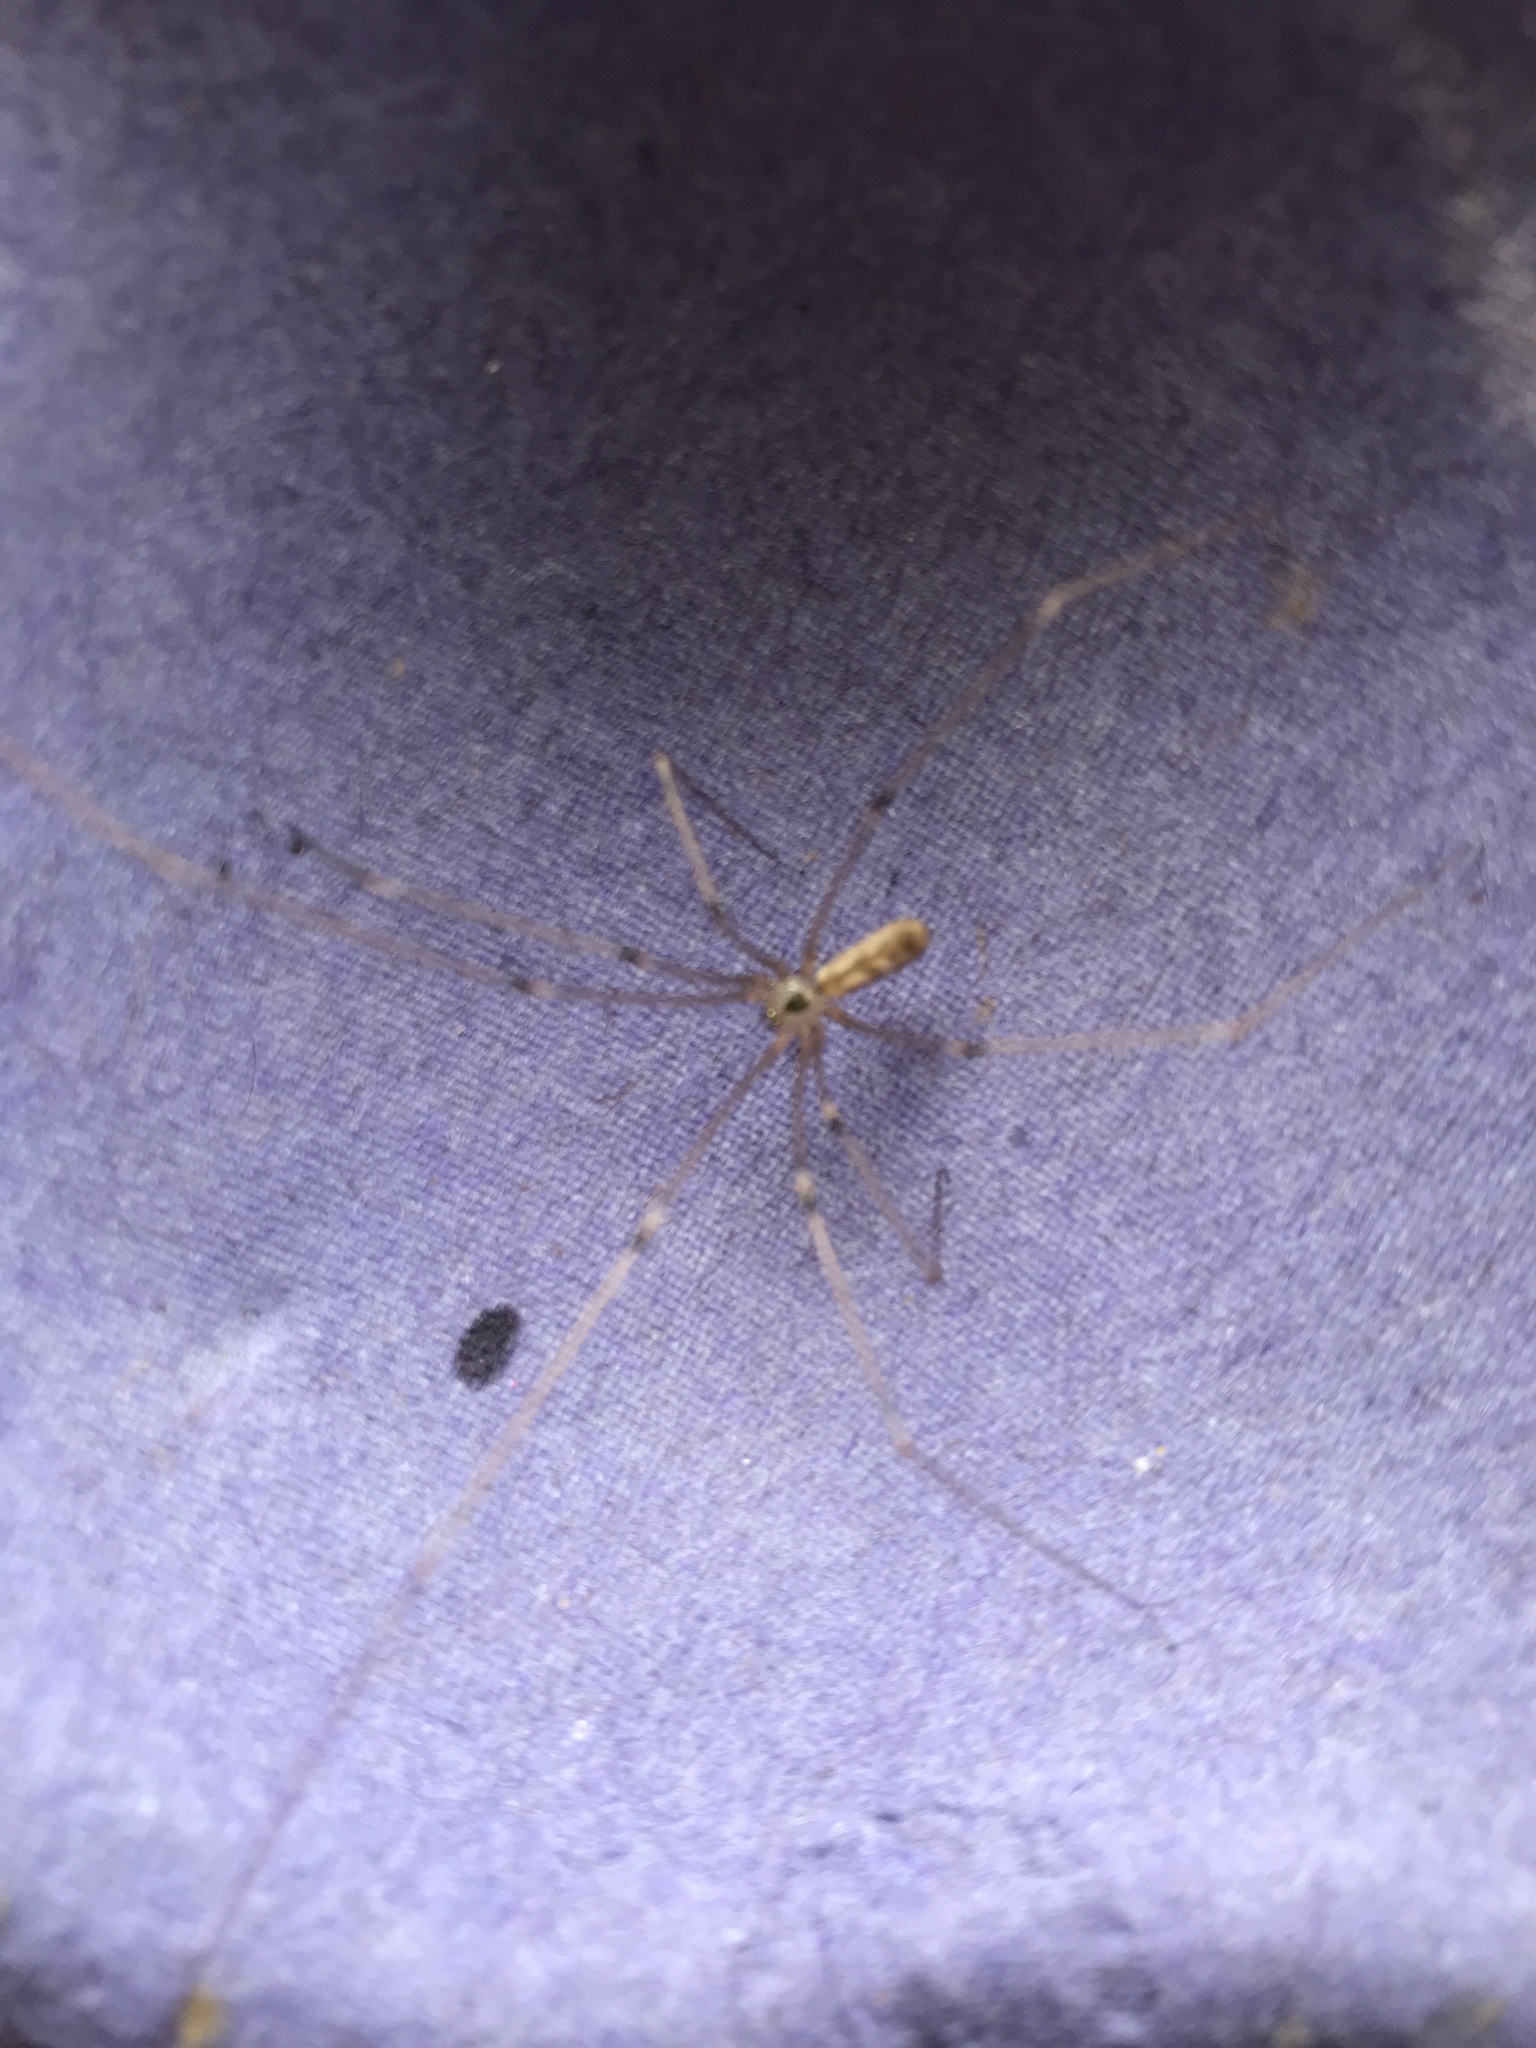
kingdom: Animalia
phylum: Arthropoda
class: Arachnida
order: Araneae
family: Pholcidae
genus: Pholcus
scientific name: Pholcus phalangioides
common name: Longbodied cellar spider
